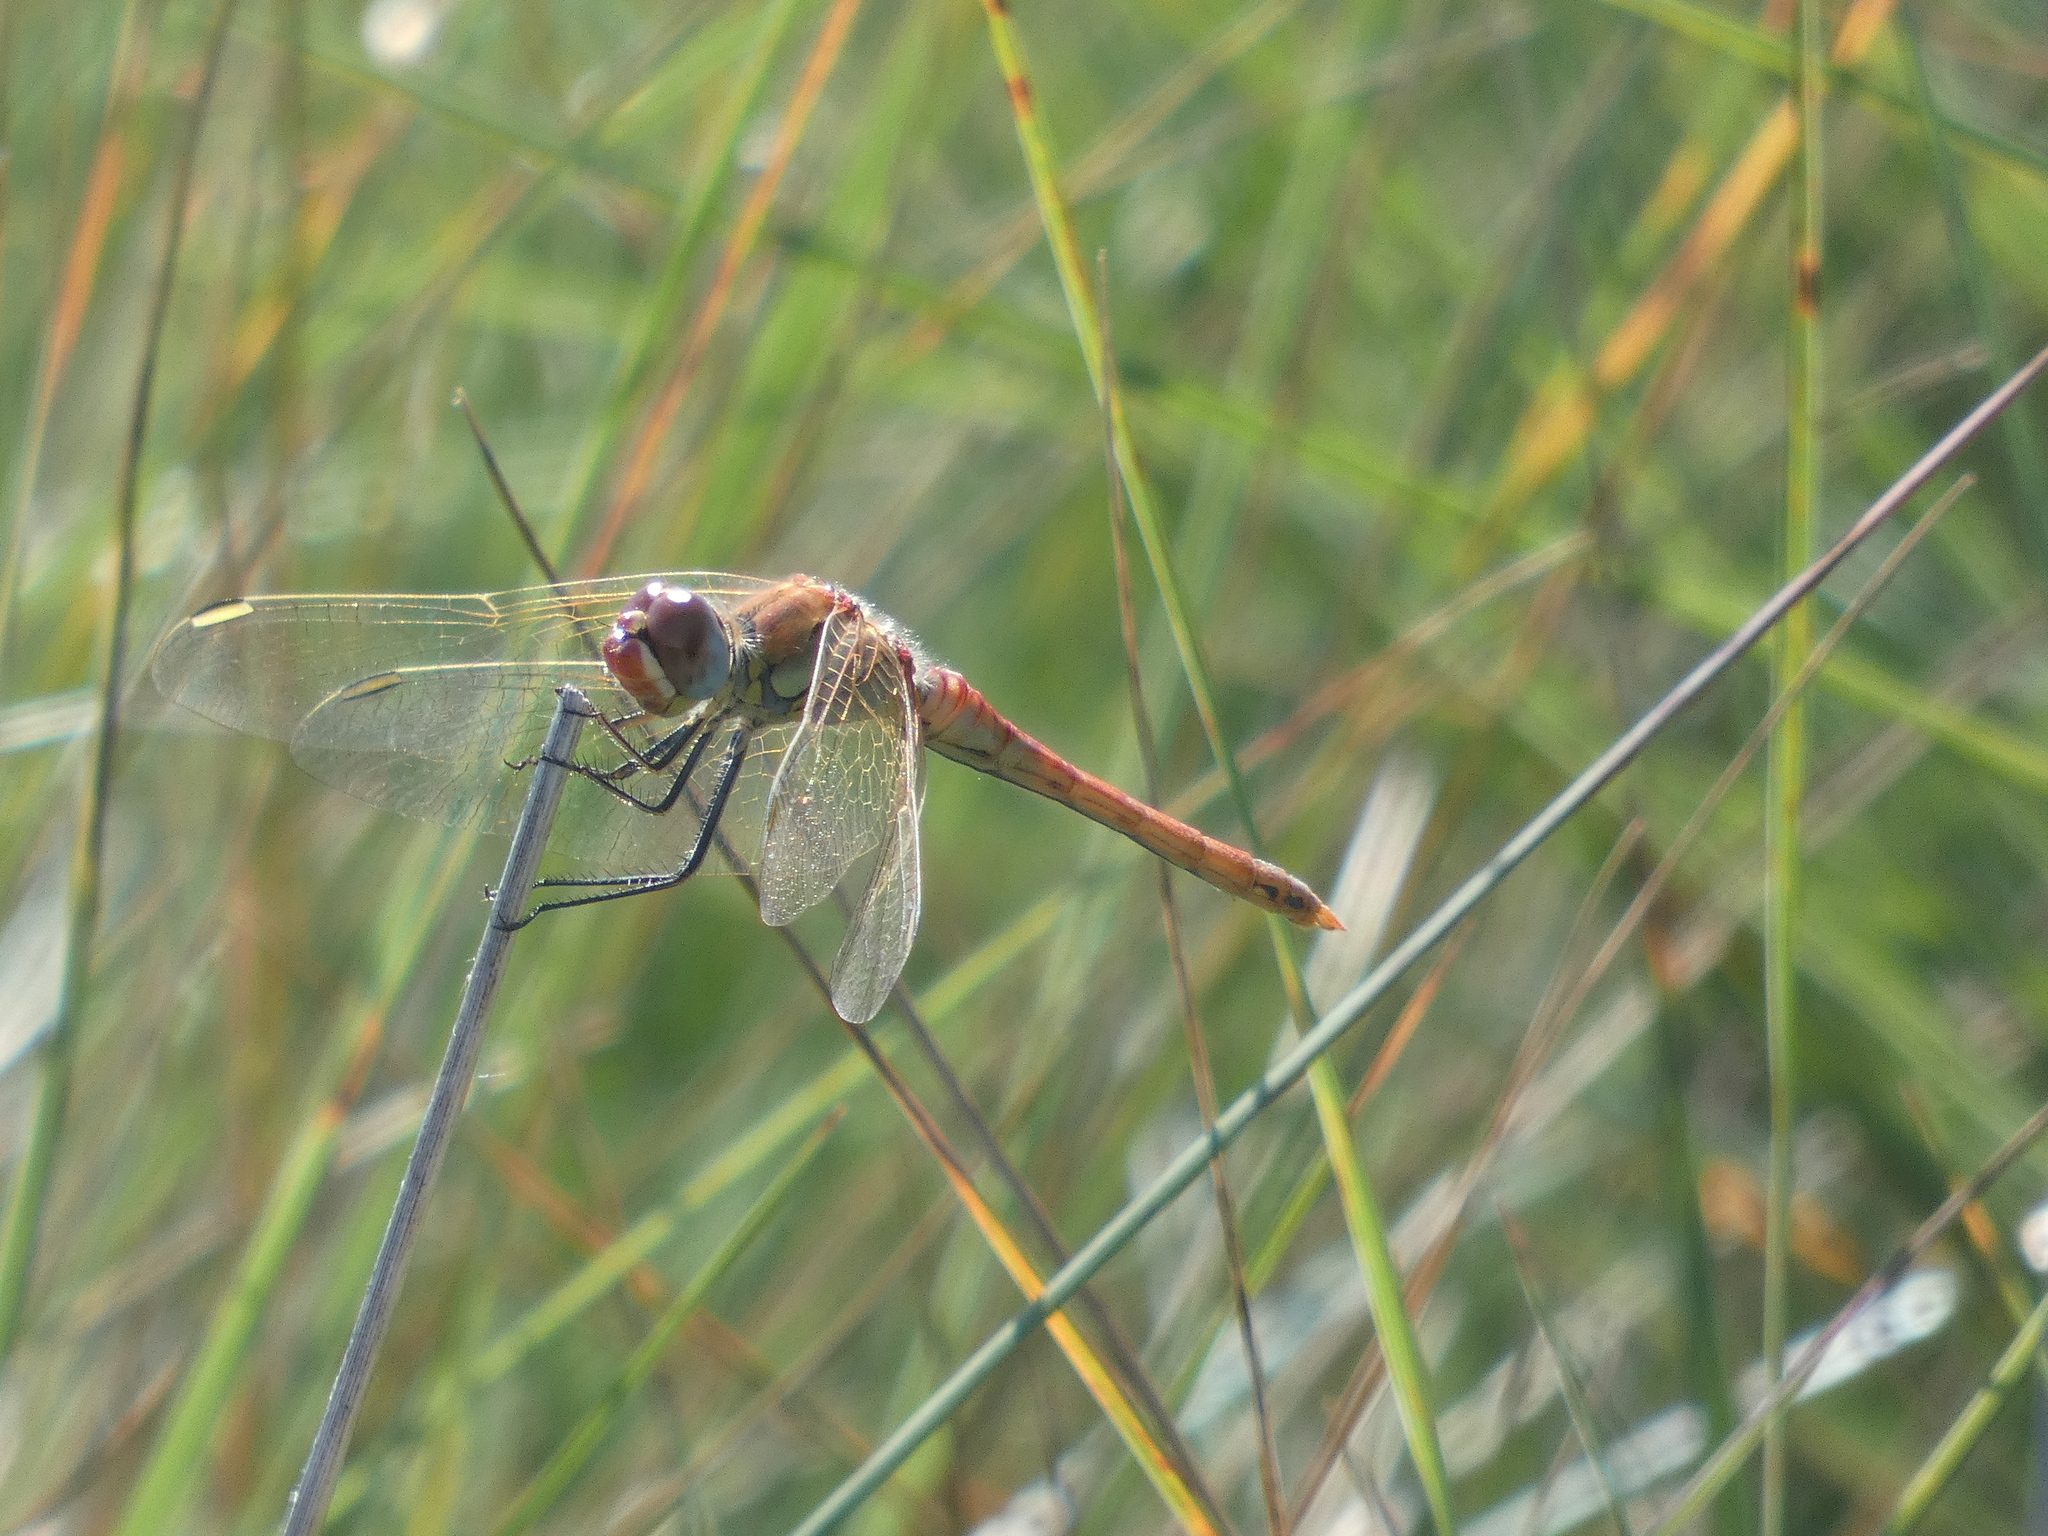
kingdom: Animalia
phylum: Arthropoda
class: Insecta
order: Odonata
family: Libellulidae
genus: Sympetrum
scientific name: Sympetrum fonscolombii
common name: Red-veined darter
